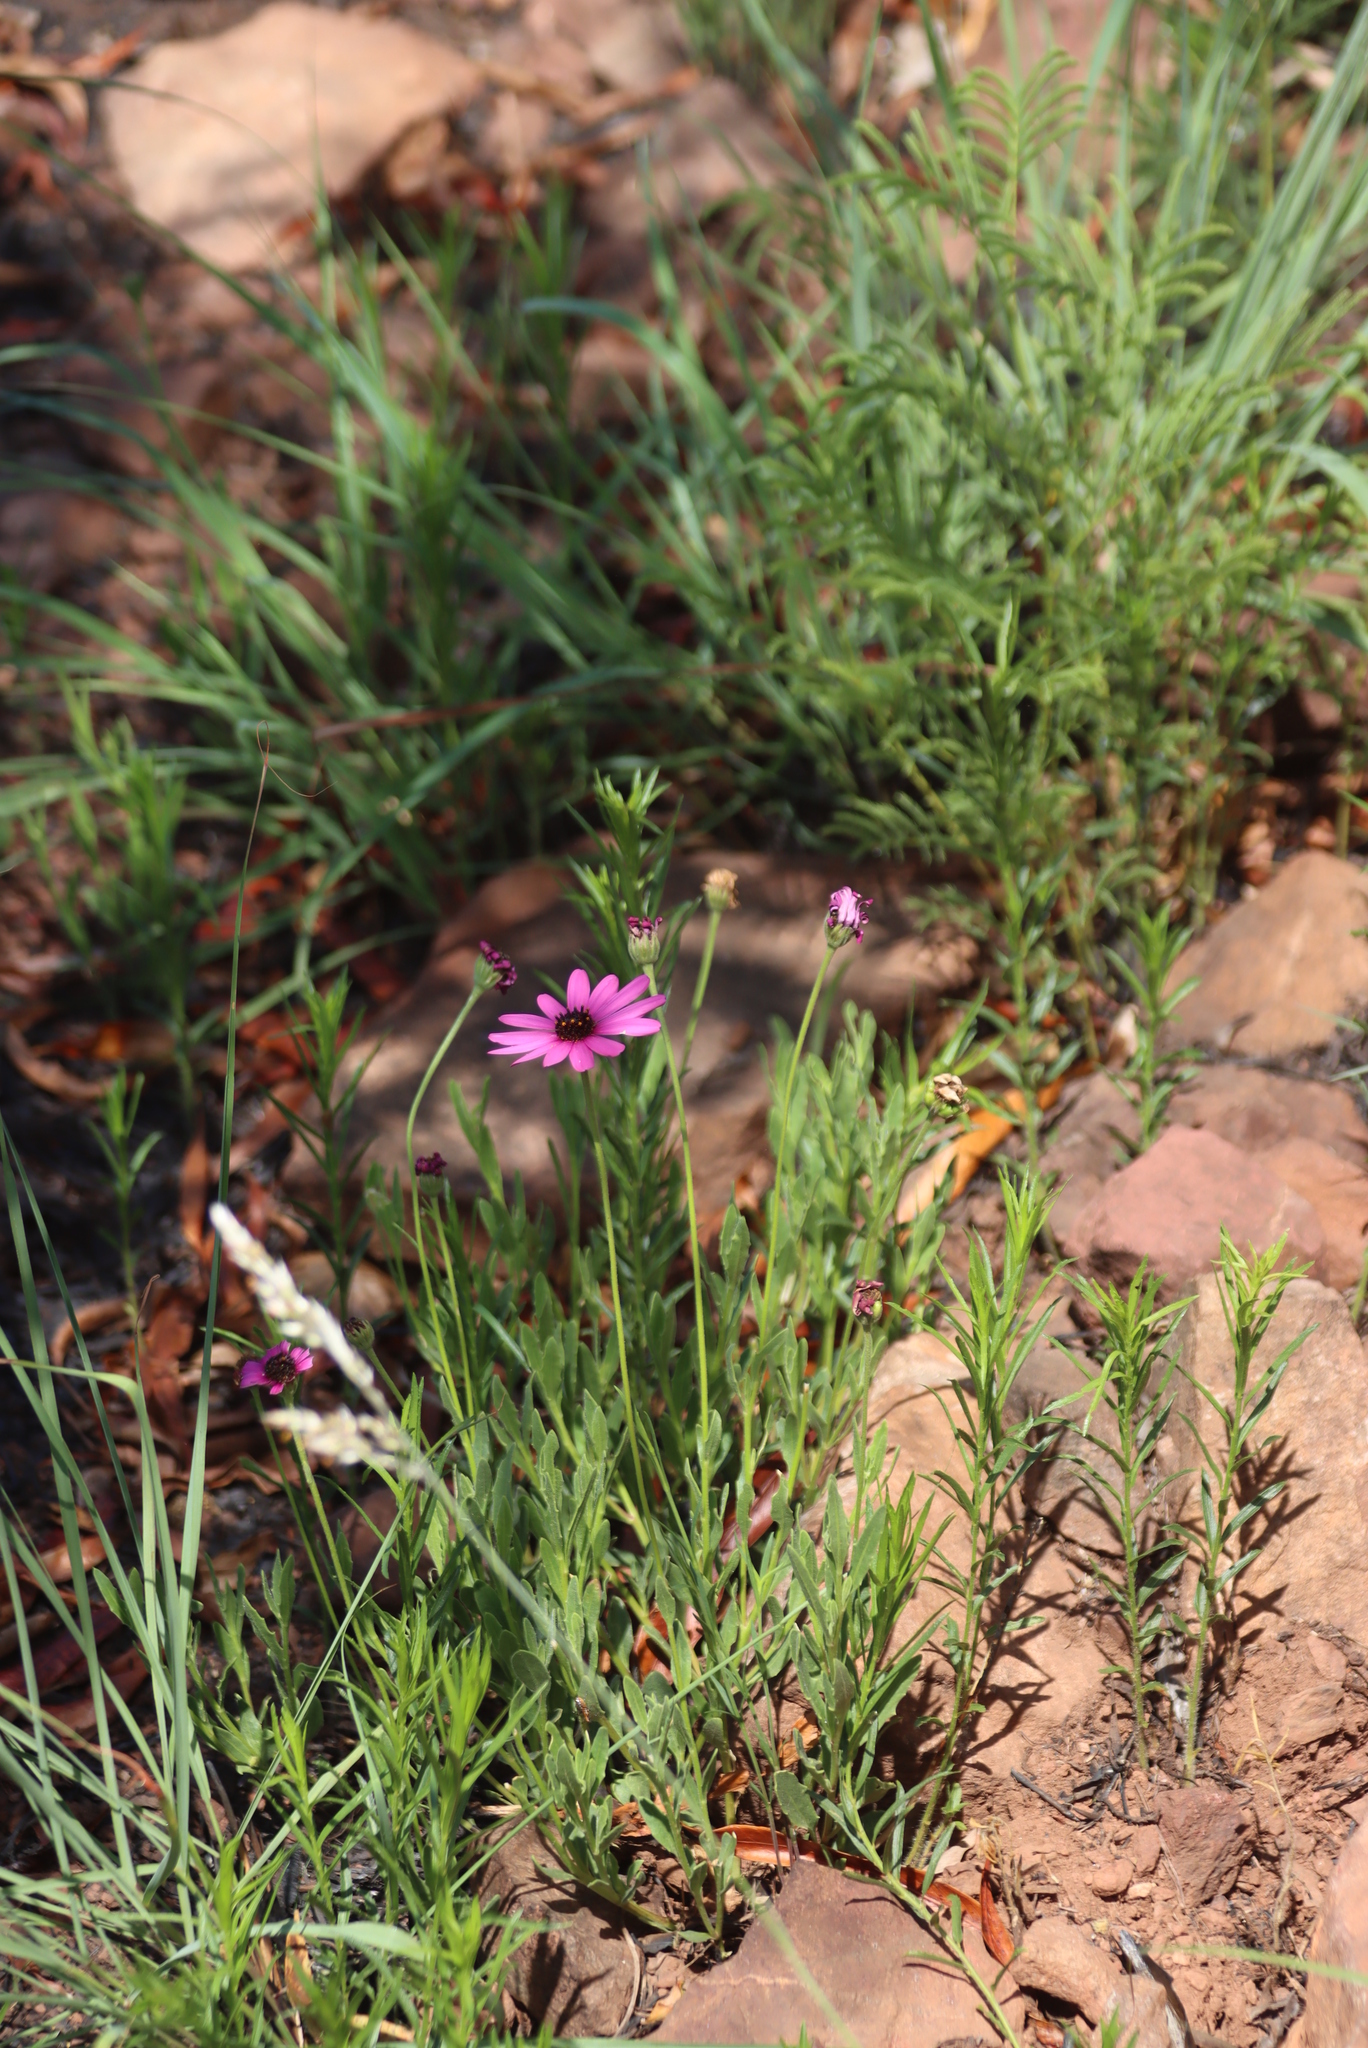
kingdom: Plantae
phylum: Tracheophyta
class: Magnoliopsida
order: Asterales
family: Asteraceae
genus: Dimorphotheca
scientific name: Dimorphotheca jucunda
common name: Osteospermum
